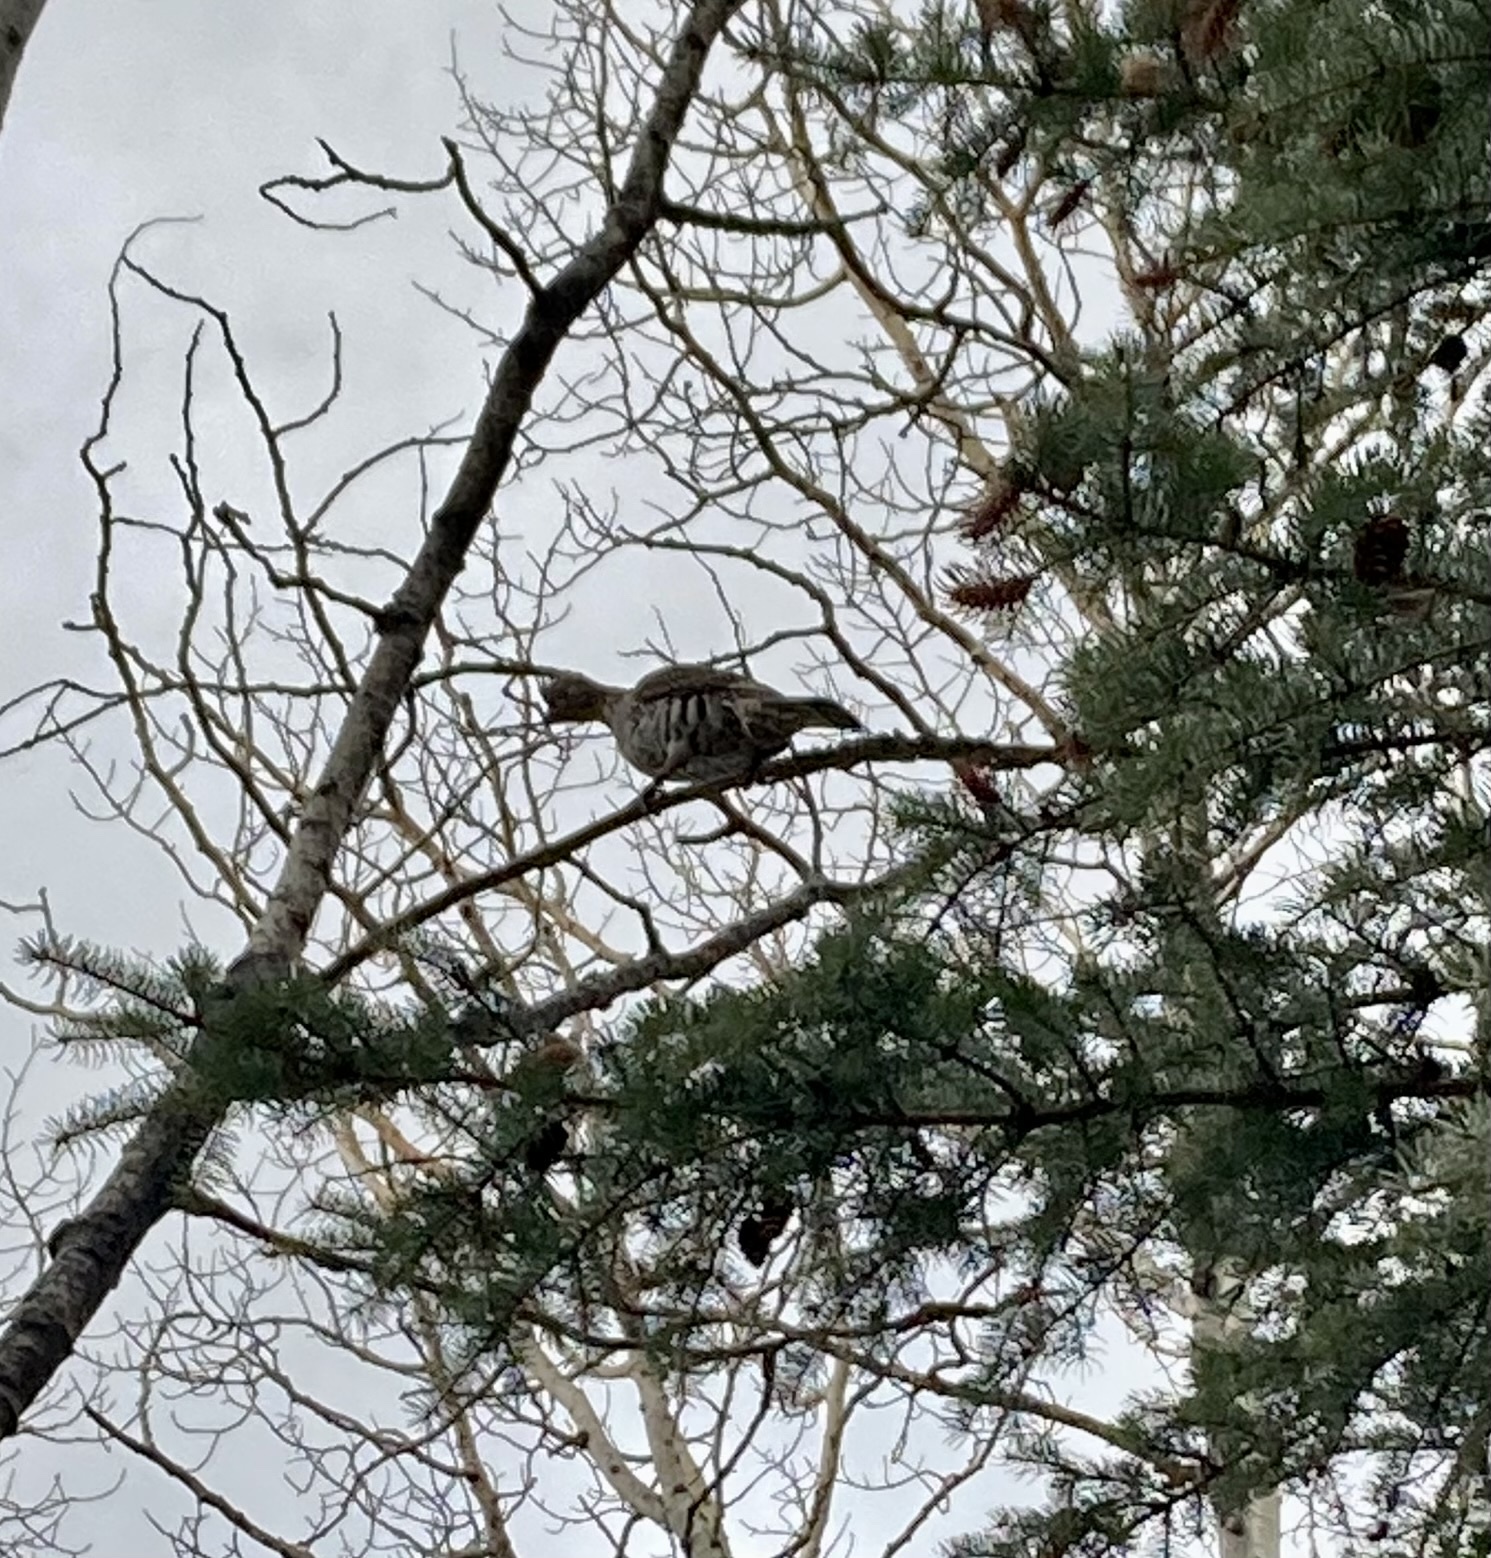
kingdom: Animalia
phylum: Chordata
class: Aves
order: Galliformes
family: Phasianidae
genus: Bonasa
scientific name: Bonasa umbellus
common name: Ruffed grouse
